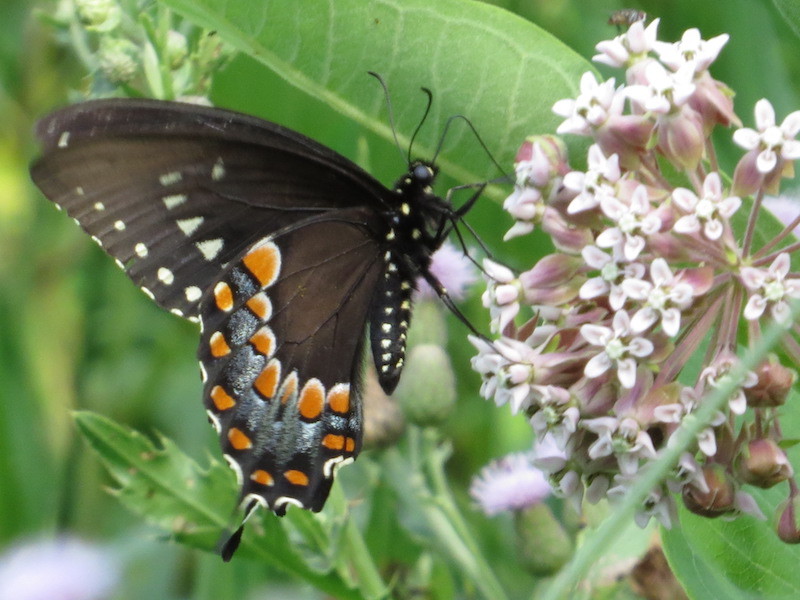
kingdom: Animalia
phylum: Arthropoda
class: Insecta
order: Lepidoptera
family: Papilionidae
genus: Papilio
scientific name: Papilio troilus
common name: Spicebush swallowtail
